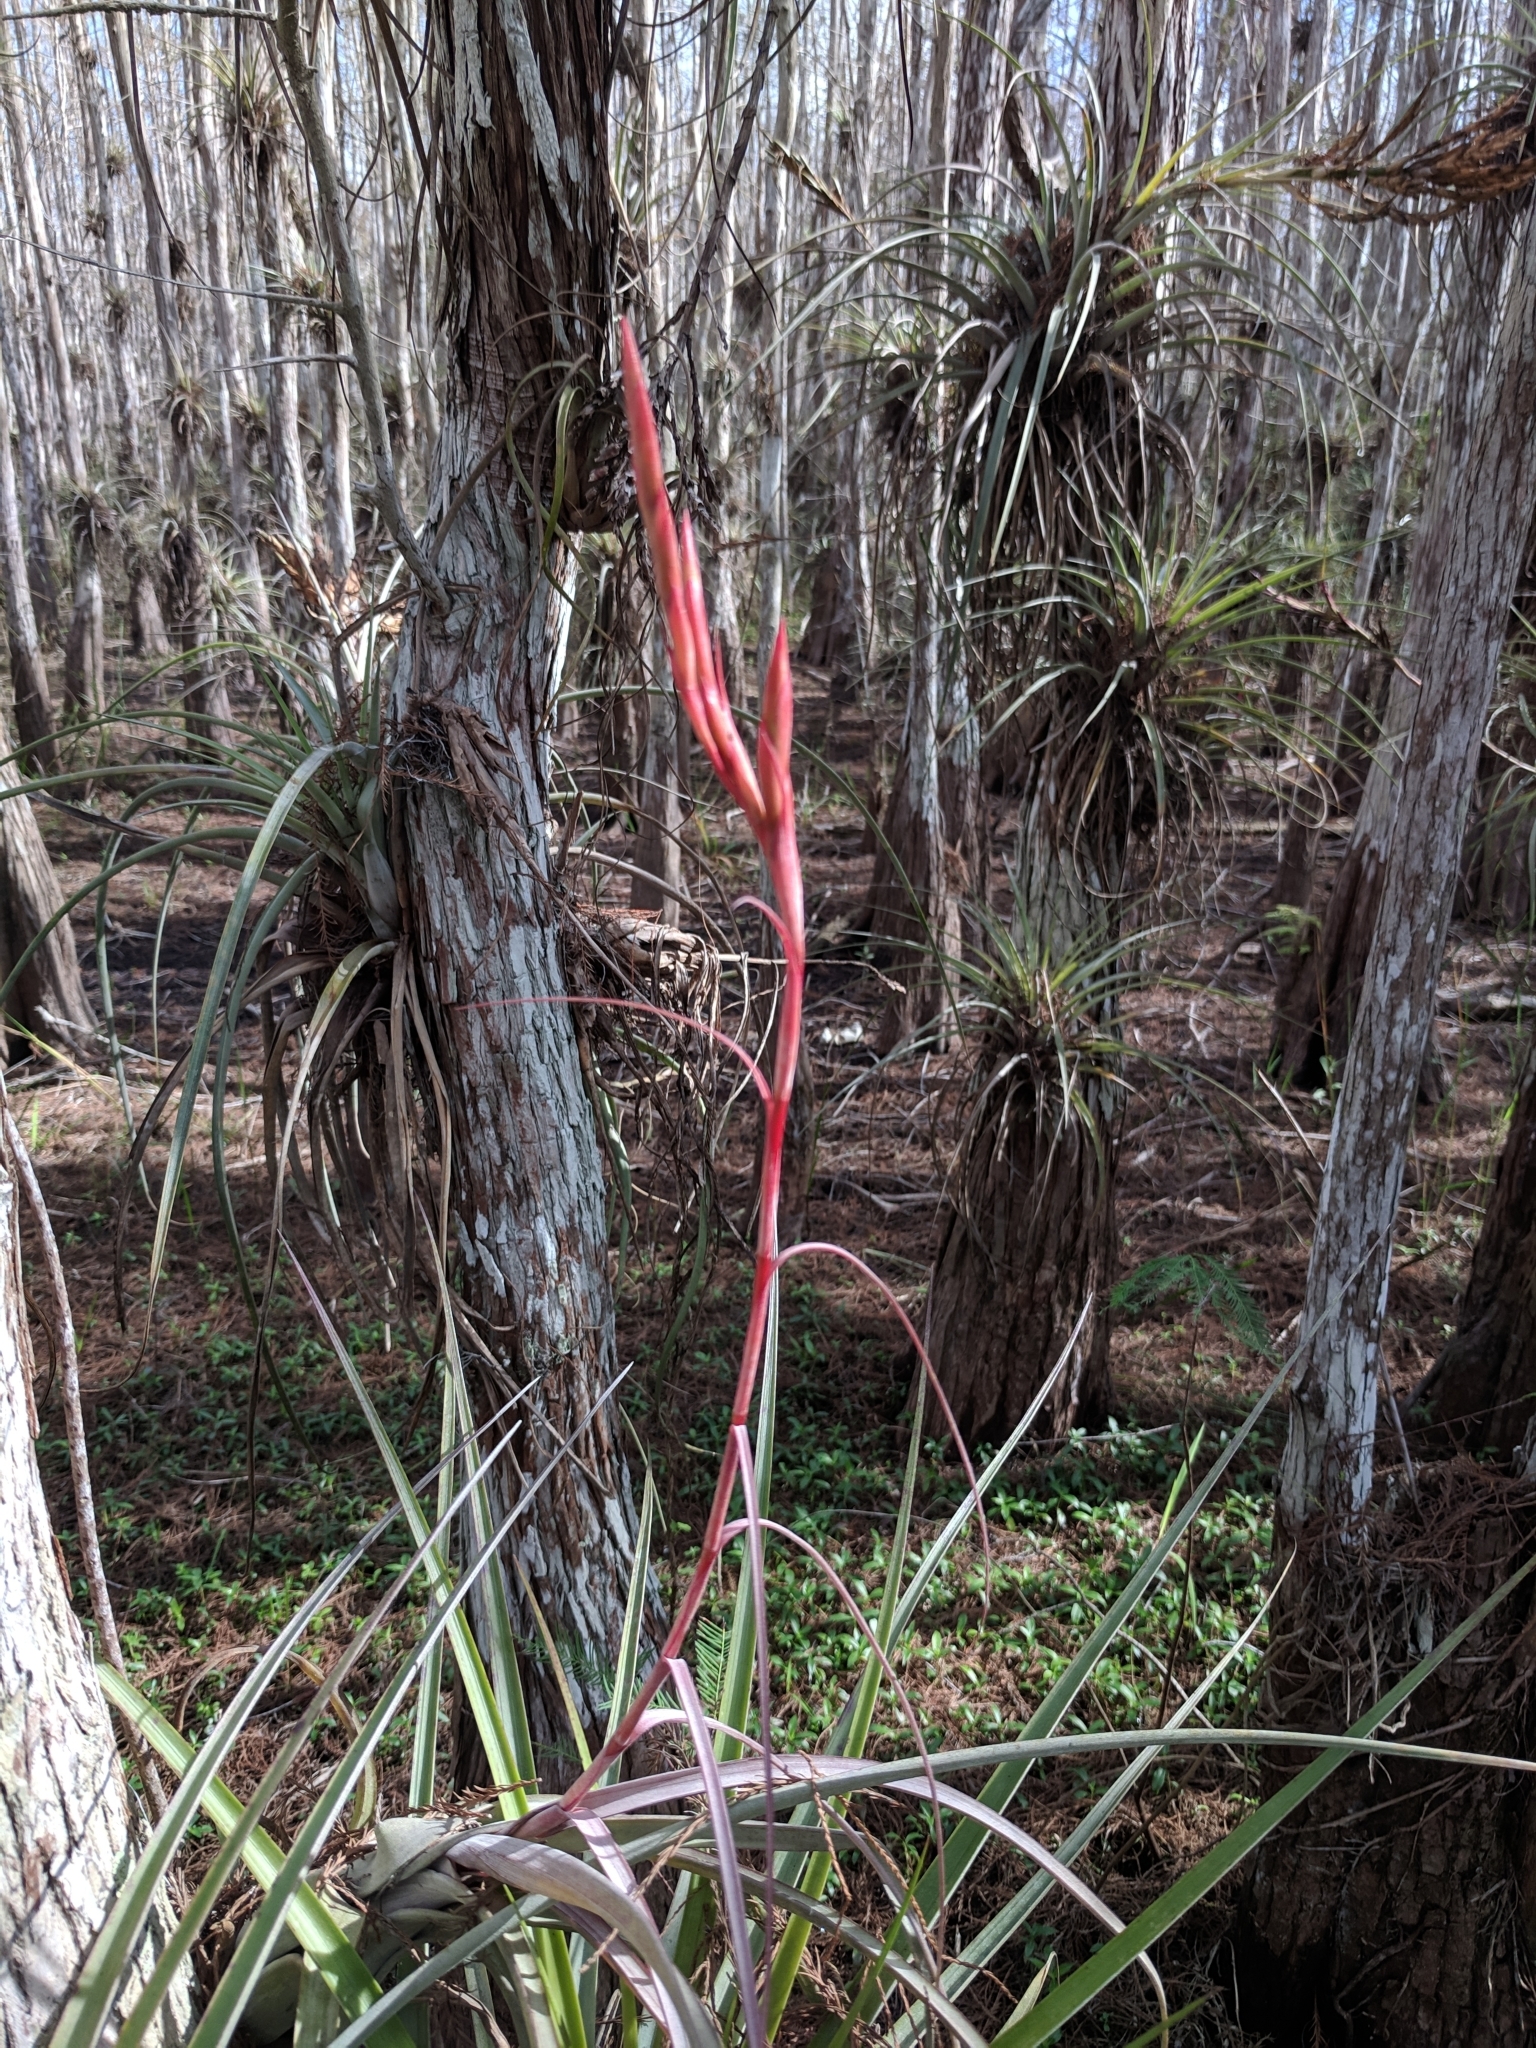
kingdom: Plantae
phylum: Tracheophyta
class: Liliopsida
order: Poales
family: Bromeliaceae
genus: Tillandsia
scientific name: Tillandsia balbisiana
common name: Northern needleleaf
